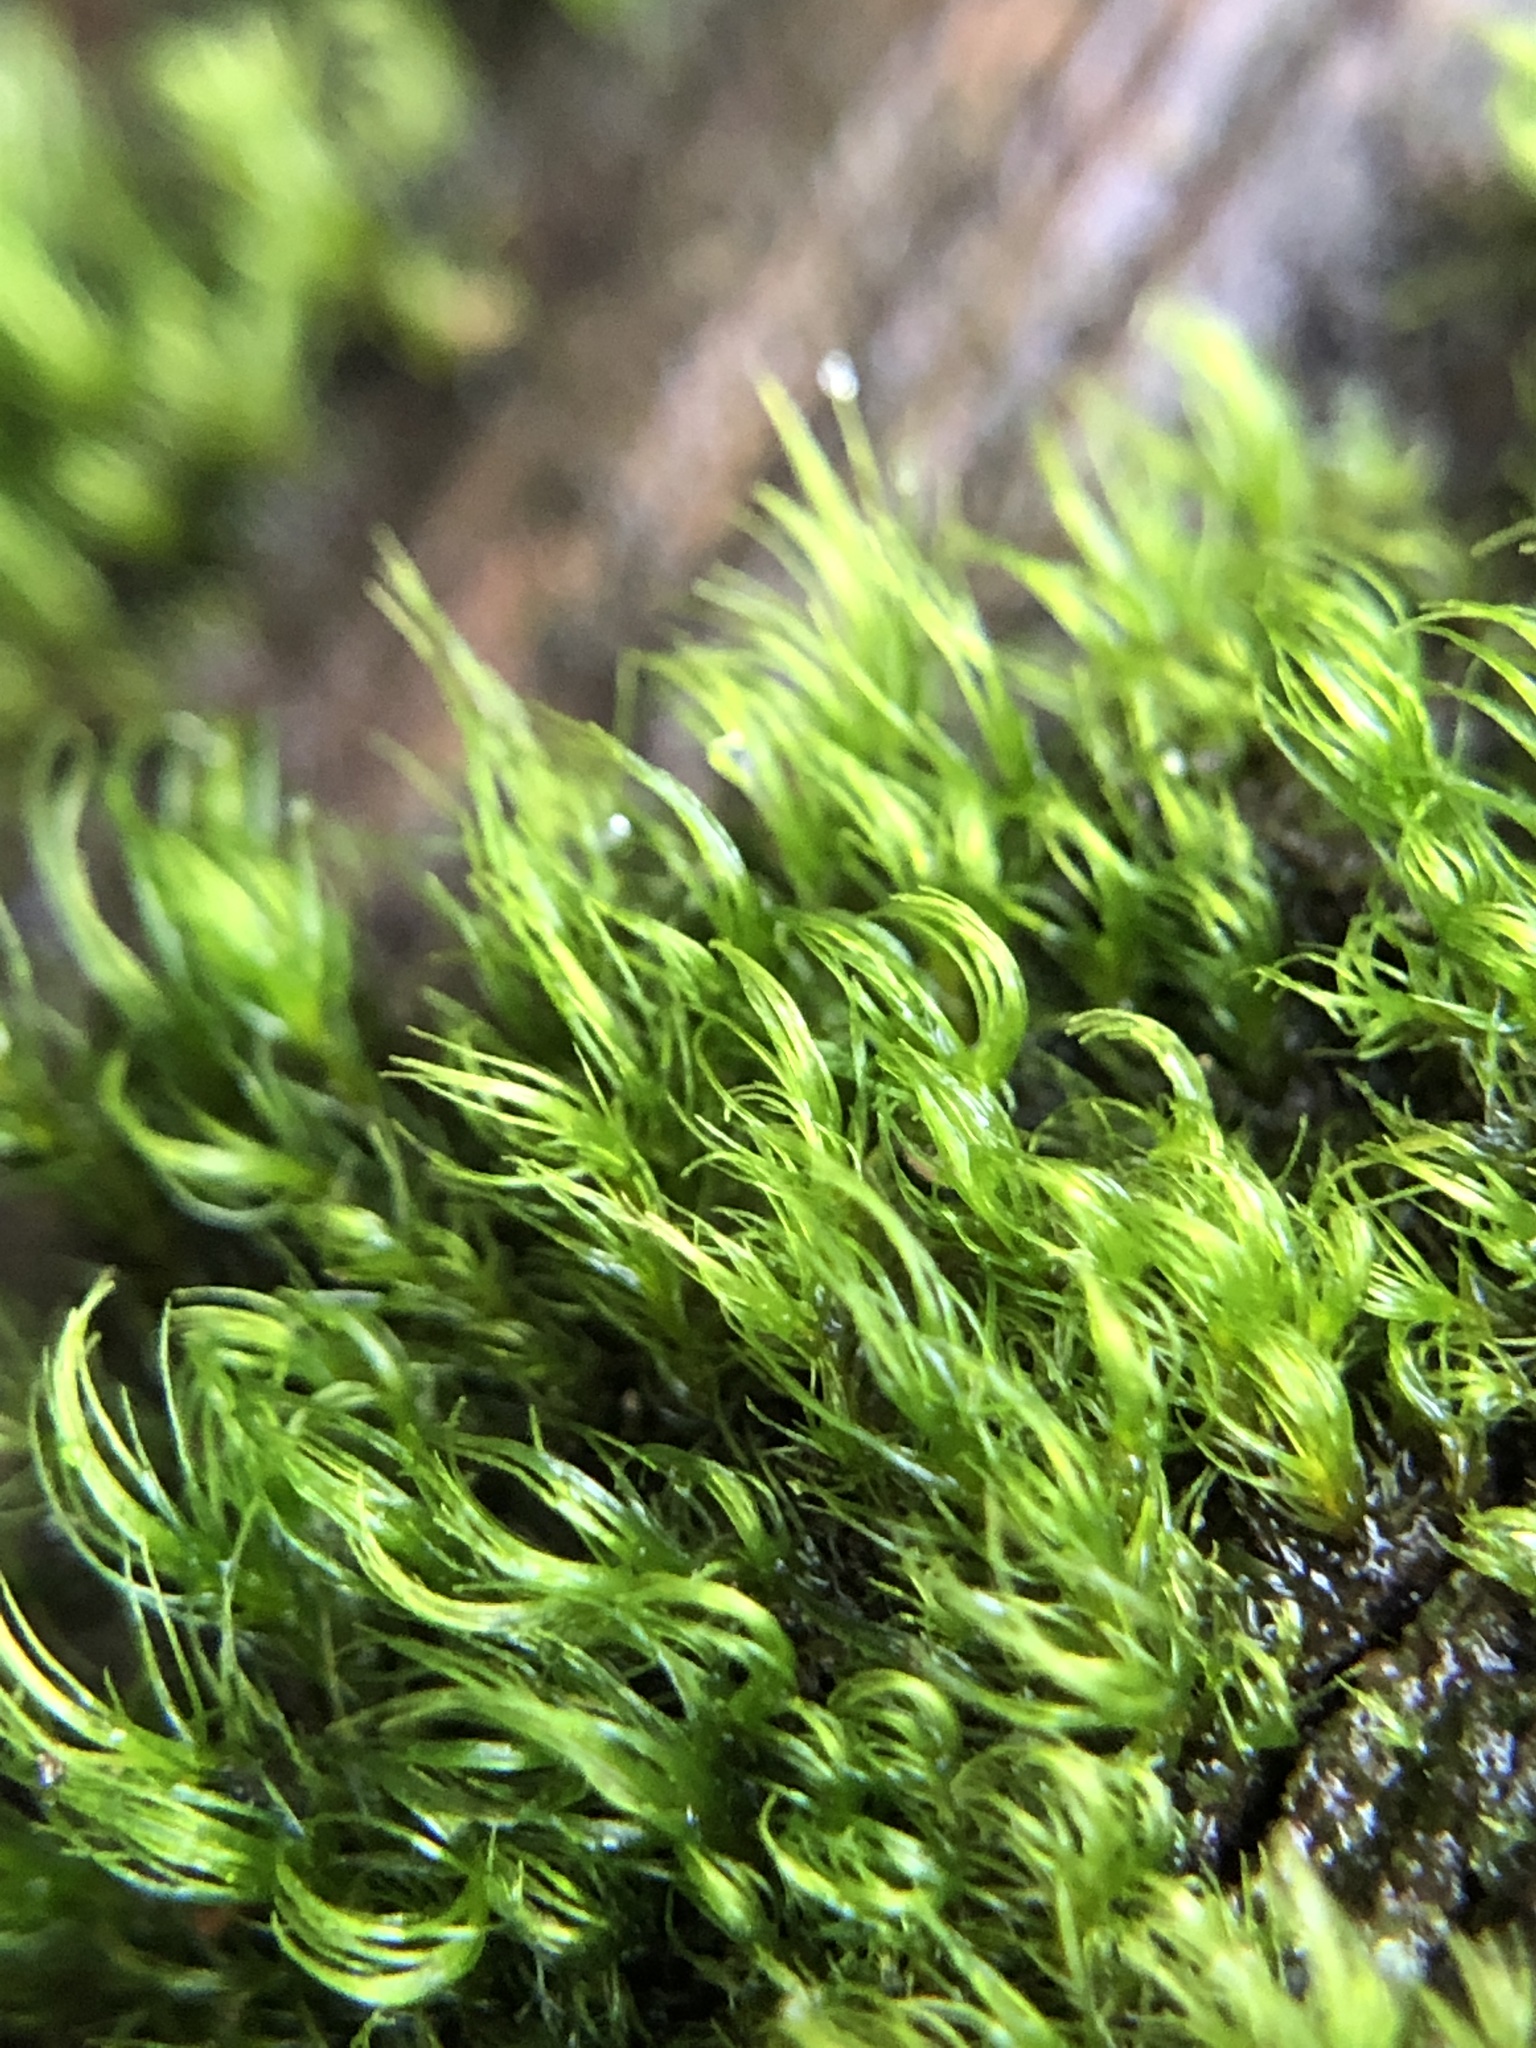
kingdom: Plantae
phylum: Bryophyta
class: Bryopsida
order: Dicranales
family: Dicranellaceae
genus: Dicranella
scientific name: Dicranella heteromalla
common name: Silky forklet moss
